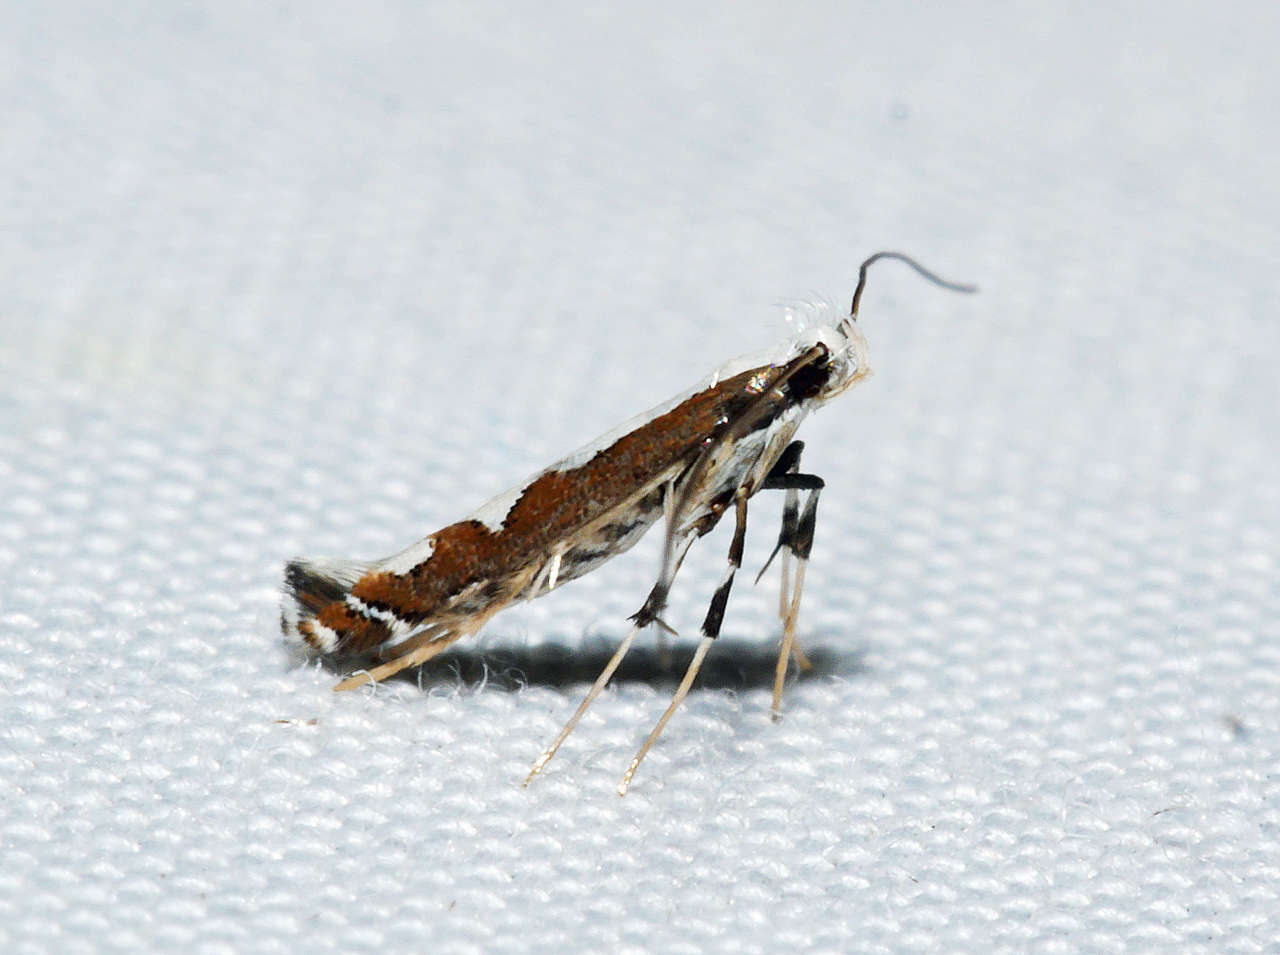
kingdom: Animalia
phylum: Arthropoda
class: Insecta
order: Lepidoptera
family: Gracillariidae
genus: Dialectica
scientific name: Dialectica scalariella
